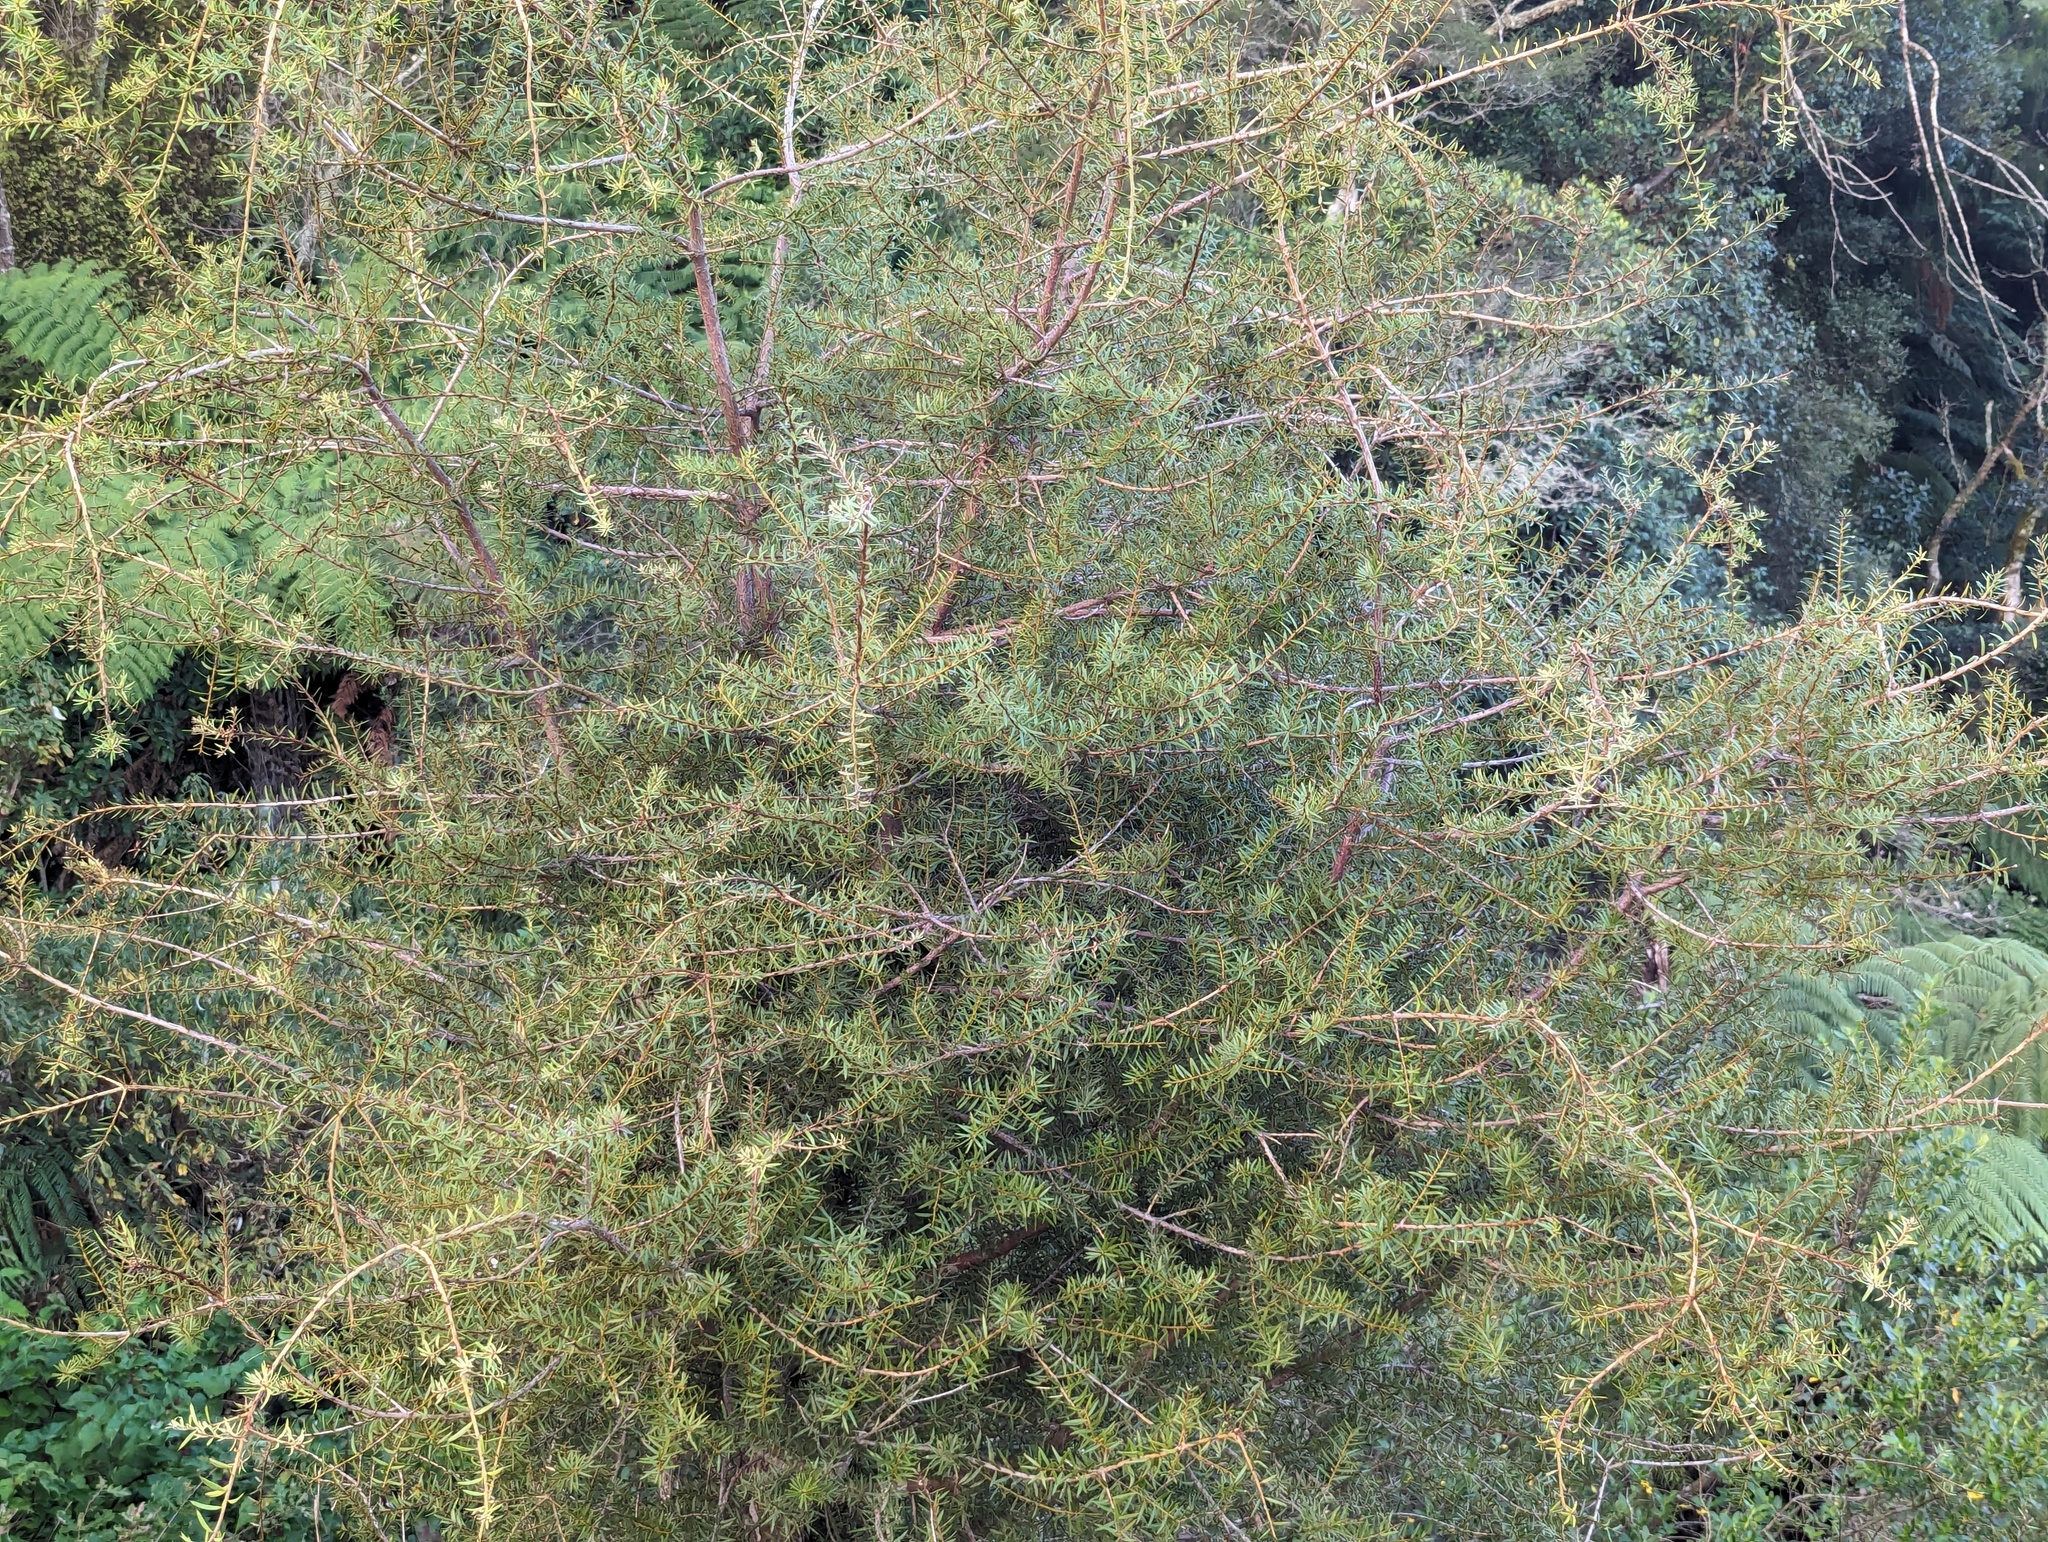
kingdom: Plantae
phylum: Tracheophyta
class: Pinopsida
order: Pinales
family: Podocarpaceae
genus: Podocarpus
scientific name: Podocarpus totara
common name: Totara
